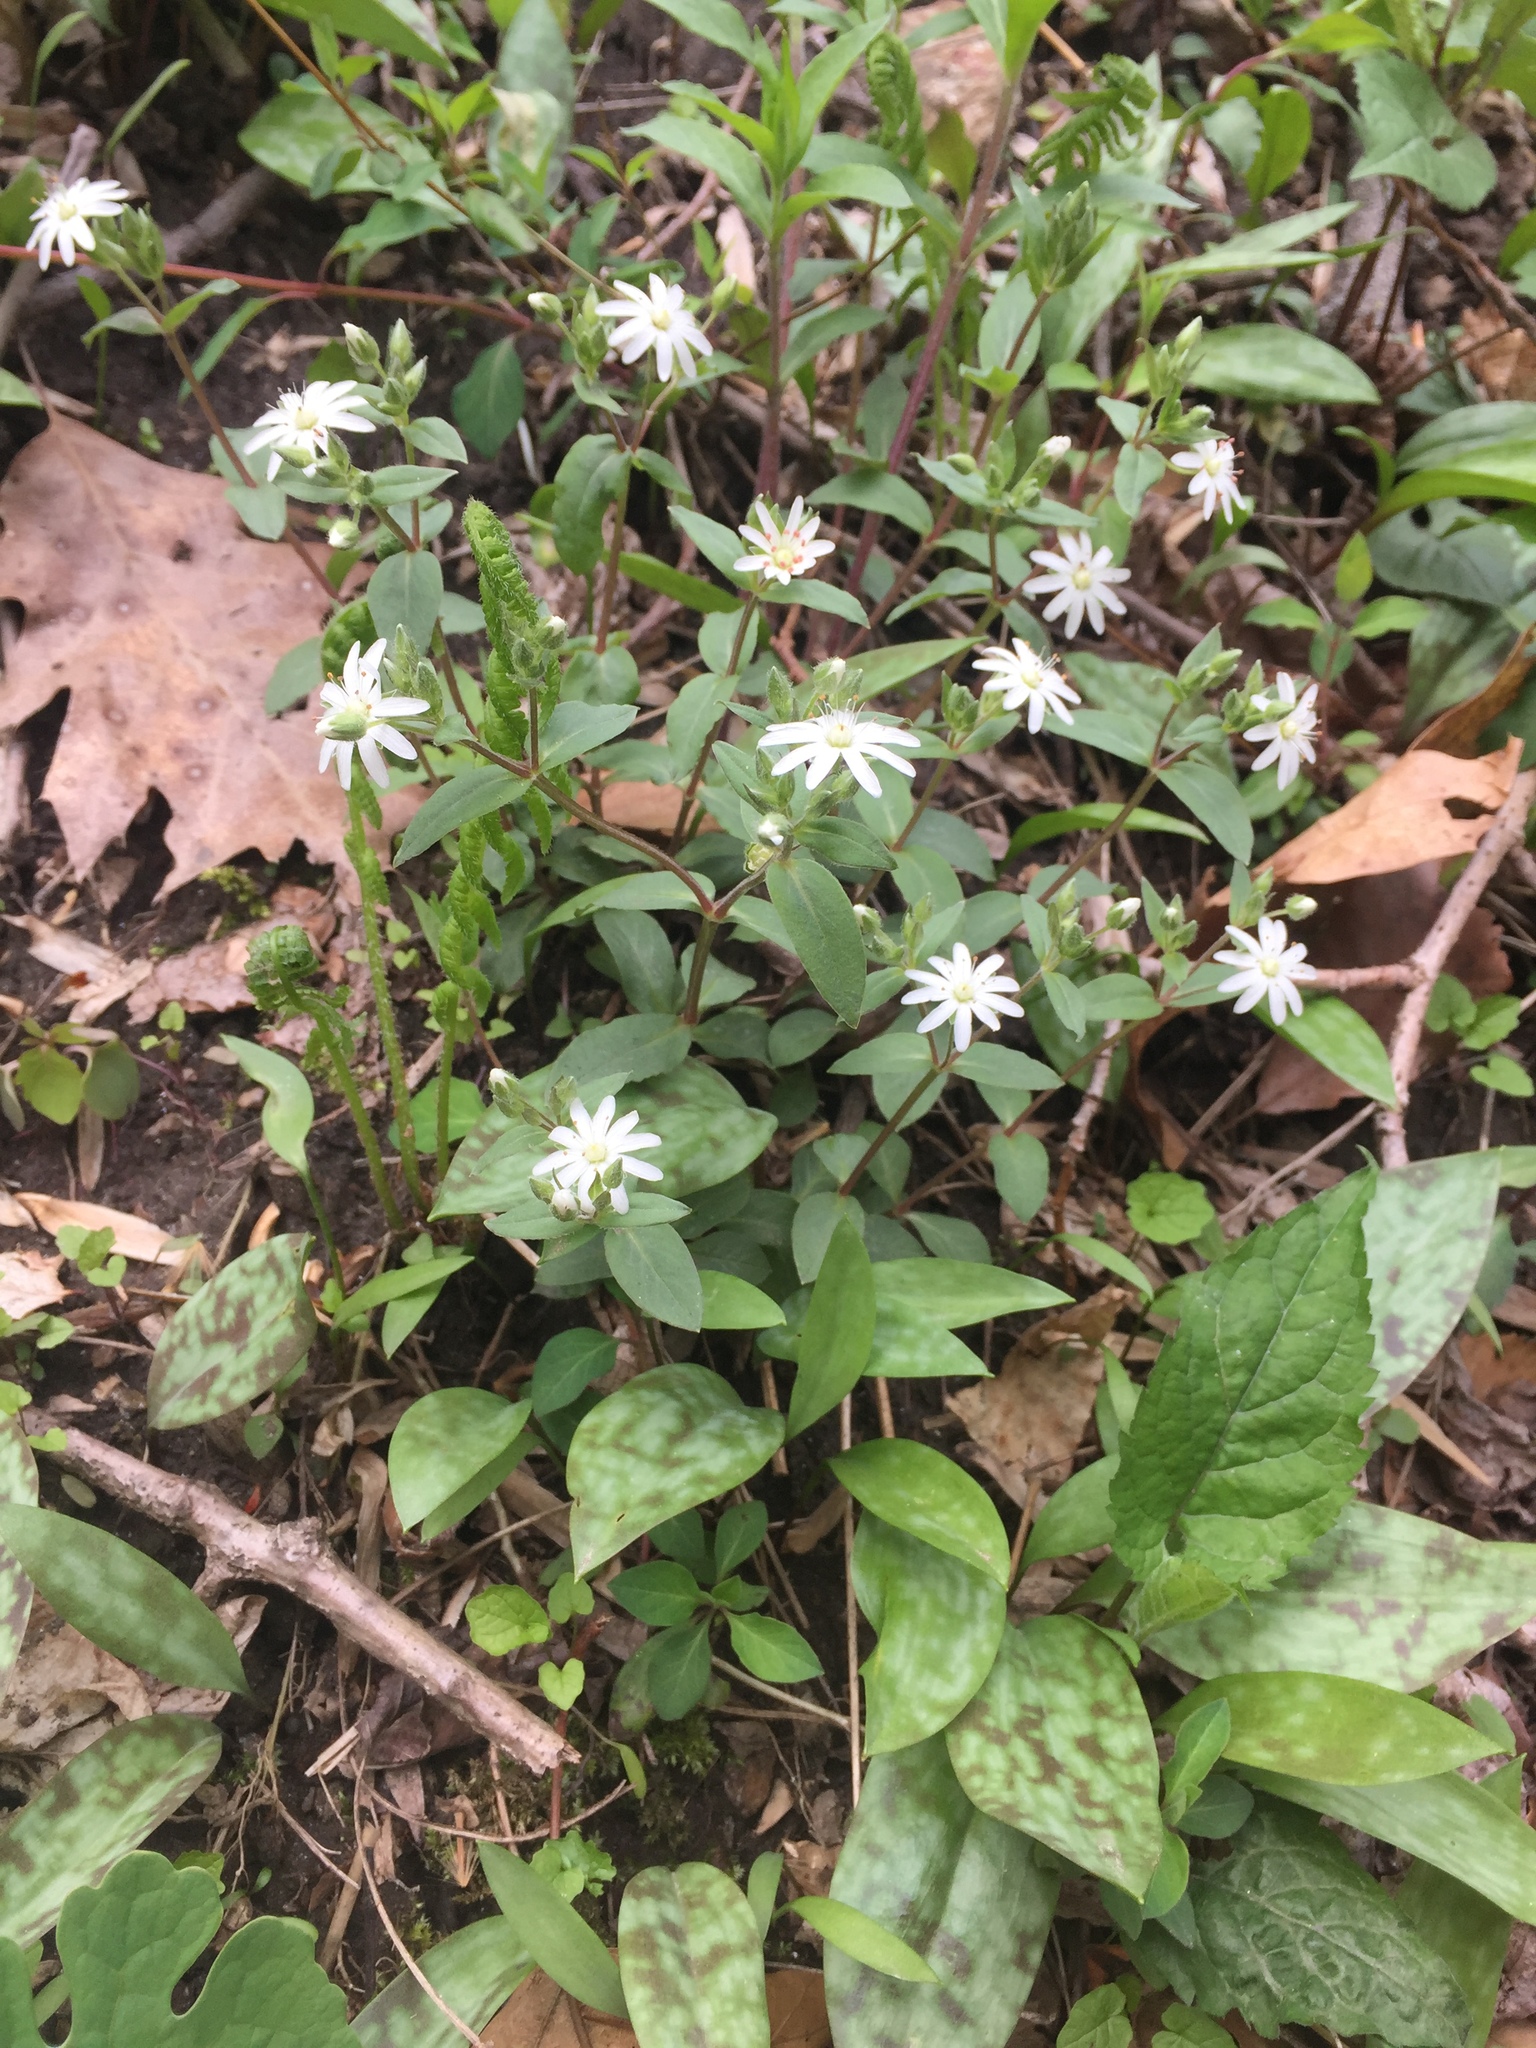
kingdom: Plantae
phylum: Tracheophyta
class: Magnoliopsida
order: Caryophyllales
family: Caryophyllaceae
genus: Stellaria
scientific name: Stellaria pubera
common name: Star chickweed
